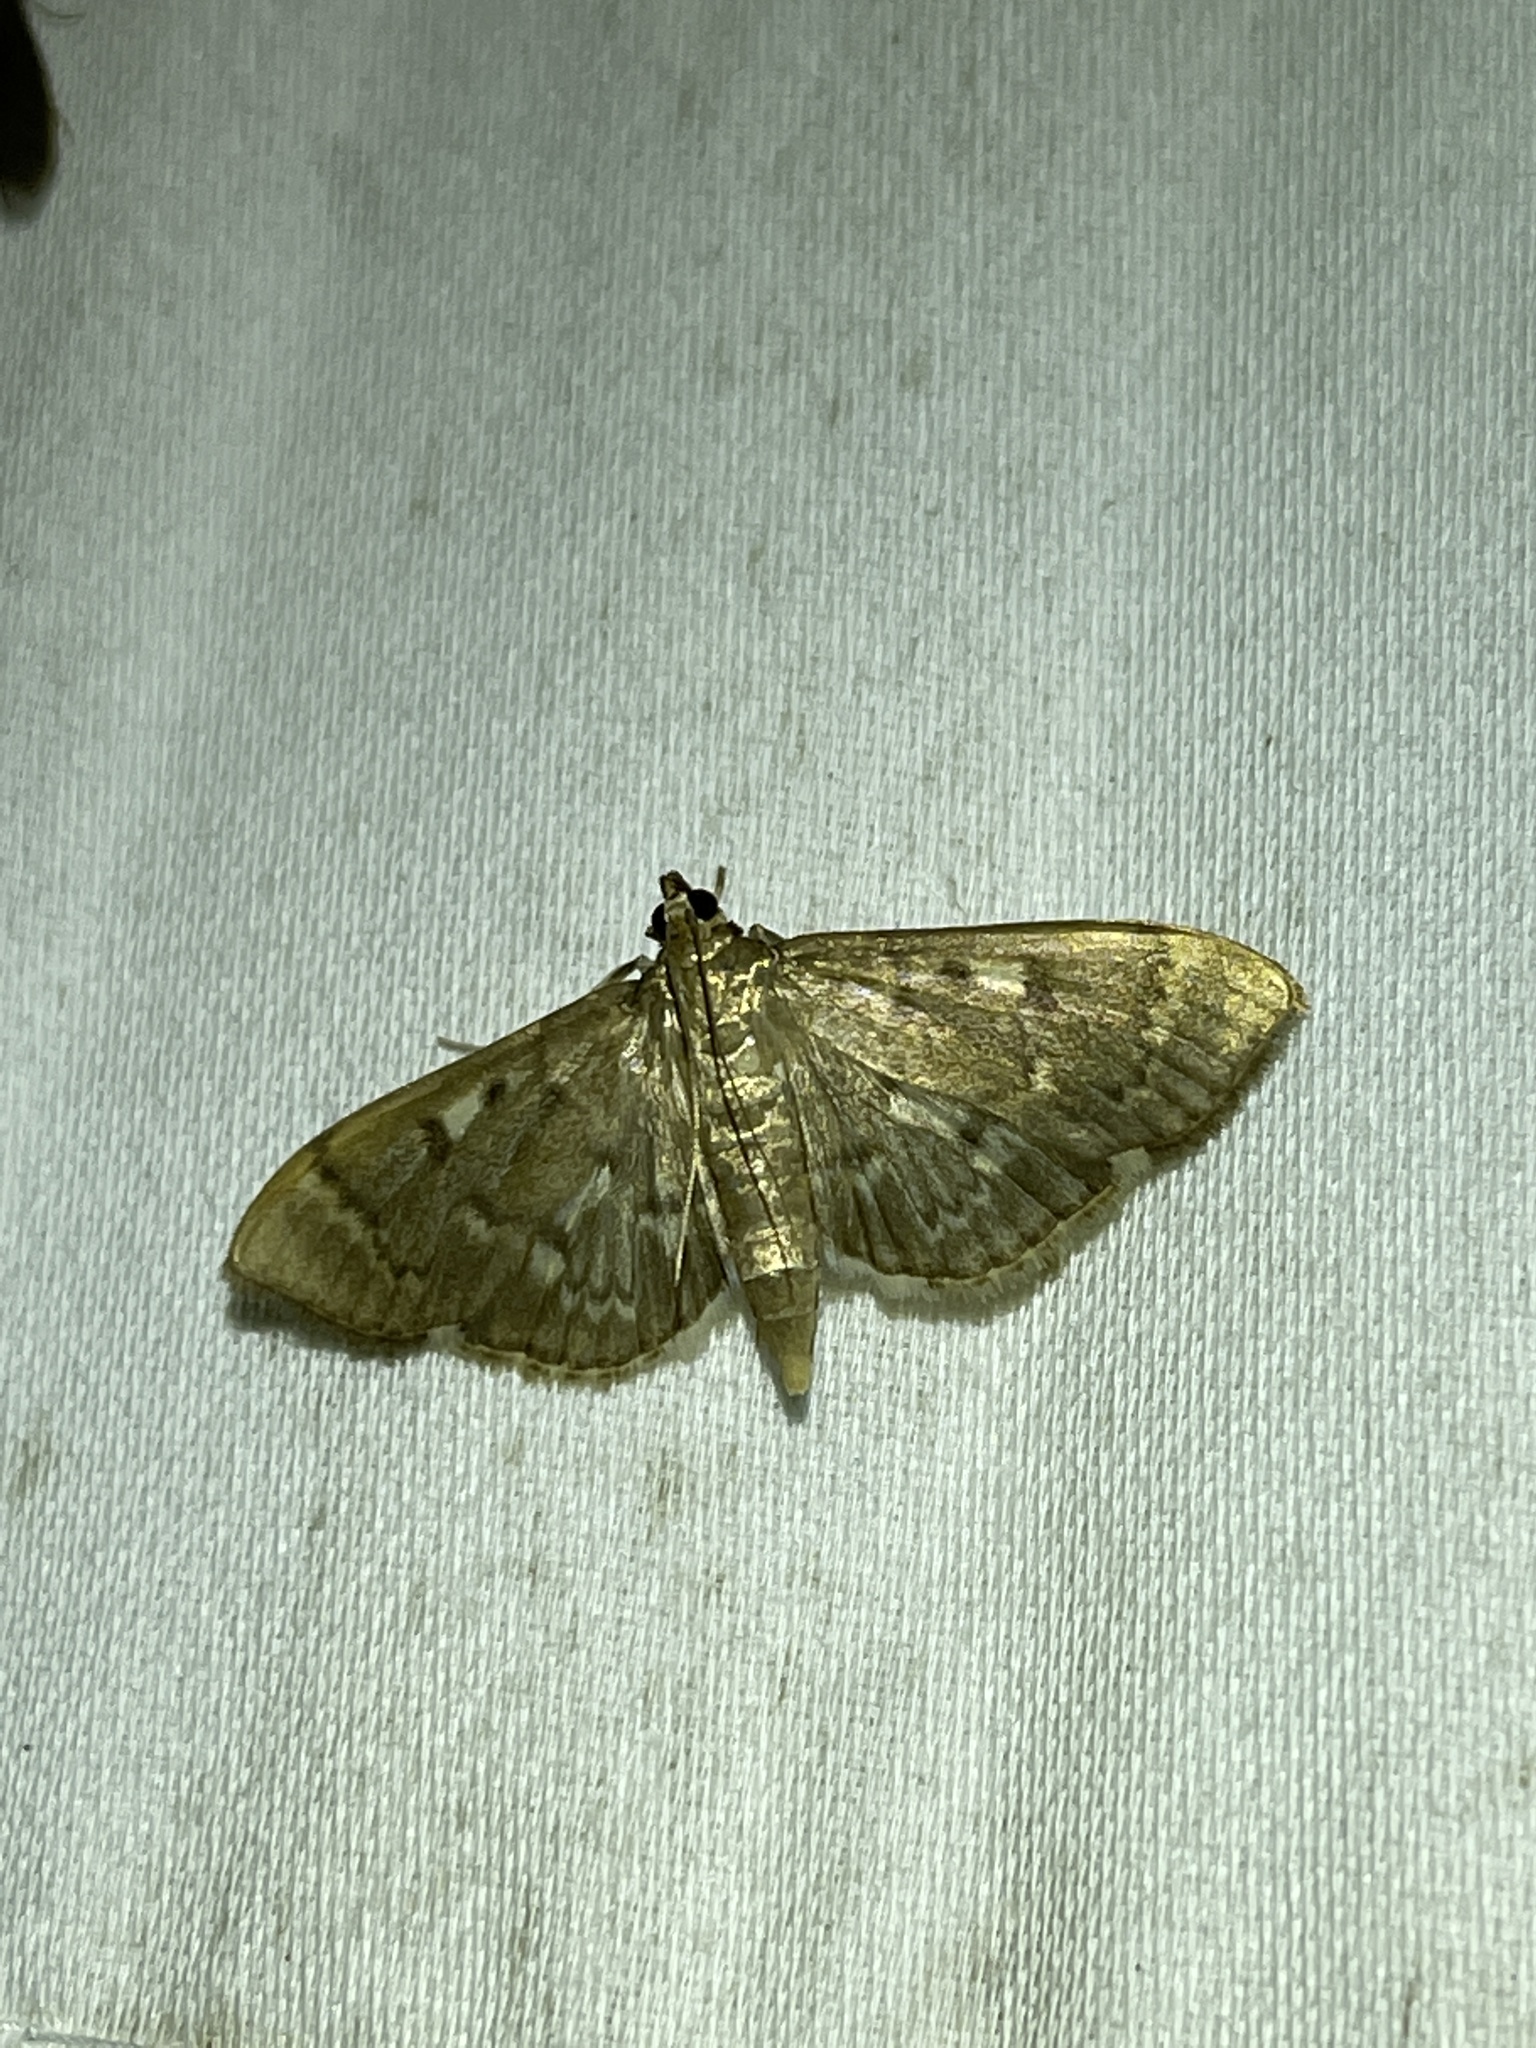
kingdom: Animalia
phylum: Arthropoda
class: Insecta
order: Lepidoptera
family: Crambidae
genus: Herpetogramma
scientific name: Herpetogramma aeglealis
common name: Serpentine webworm moth
